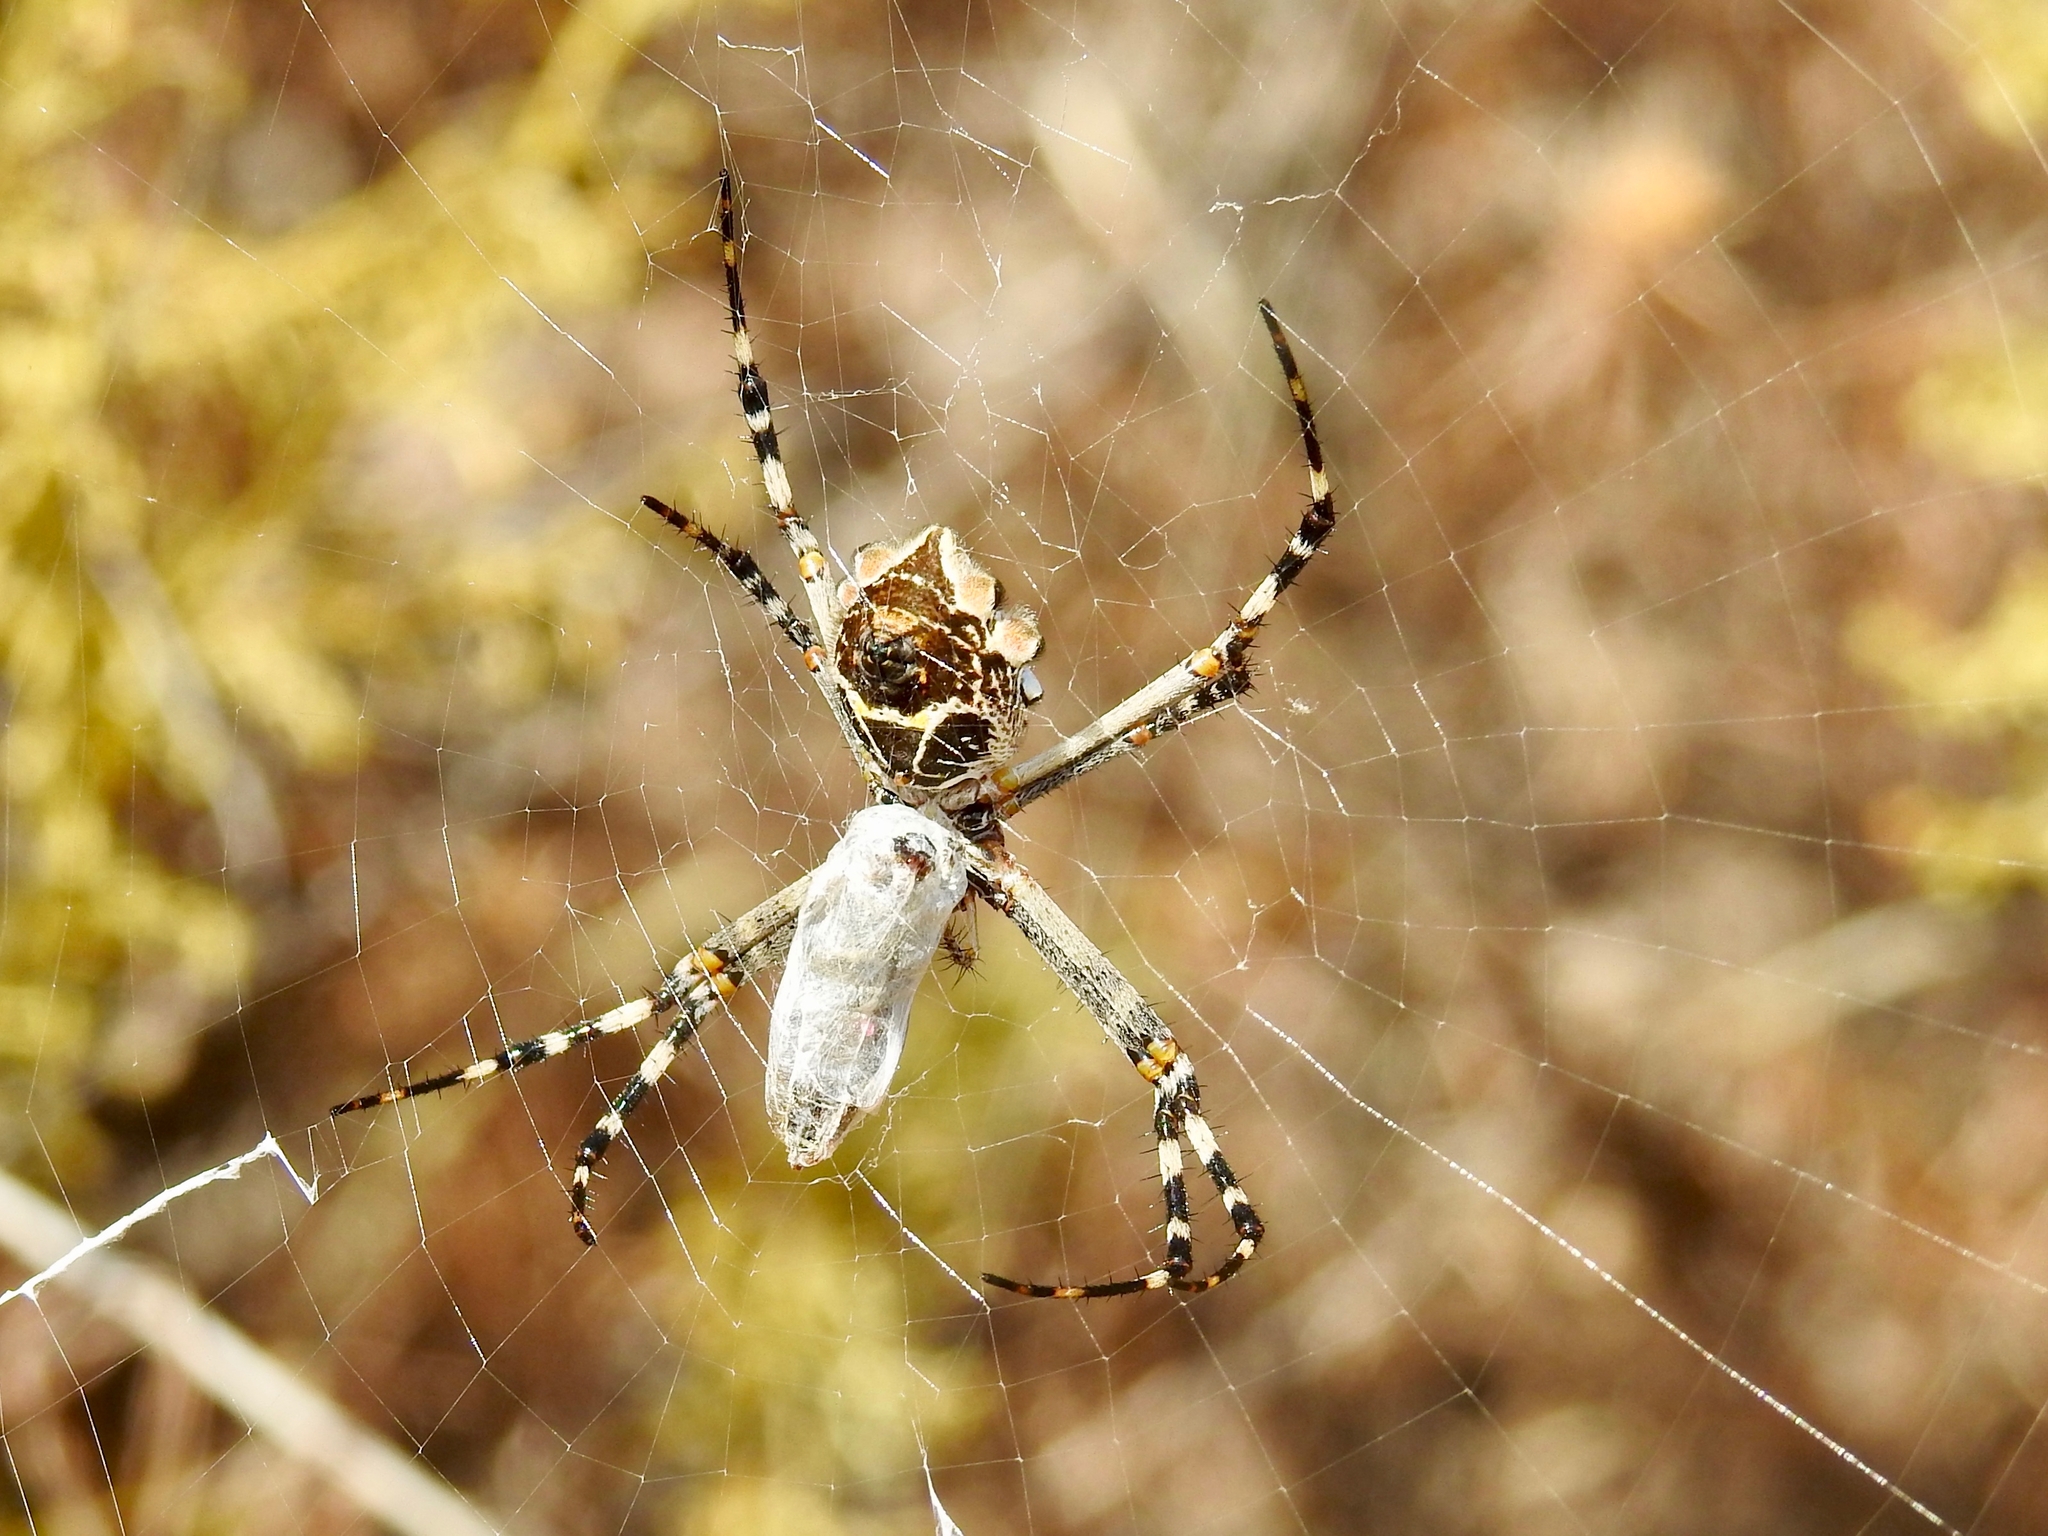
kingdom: Animalia
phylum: Arthropoda
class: Arachnida
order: Araneae
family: Araneidae
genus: Argiope
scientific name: Argiope argentata
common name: Orb weavers
